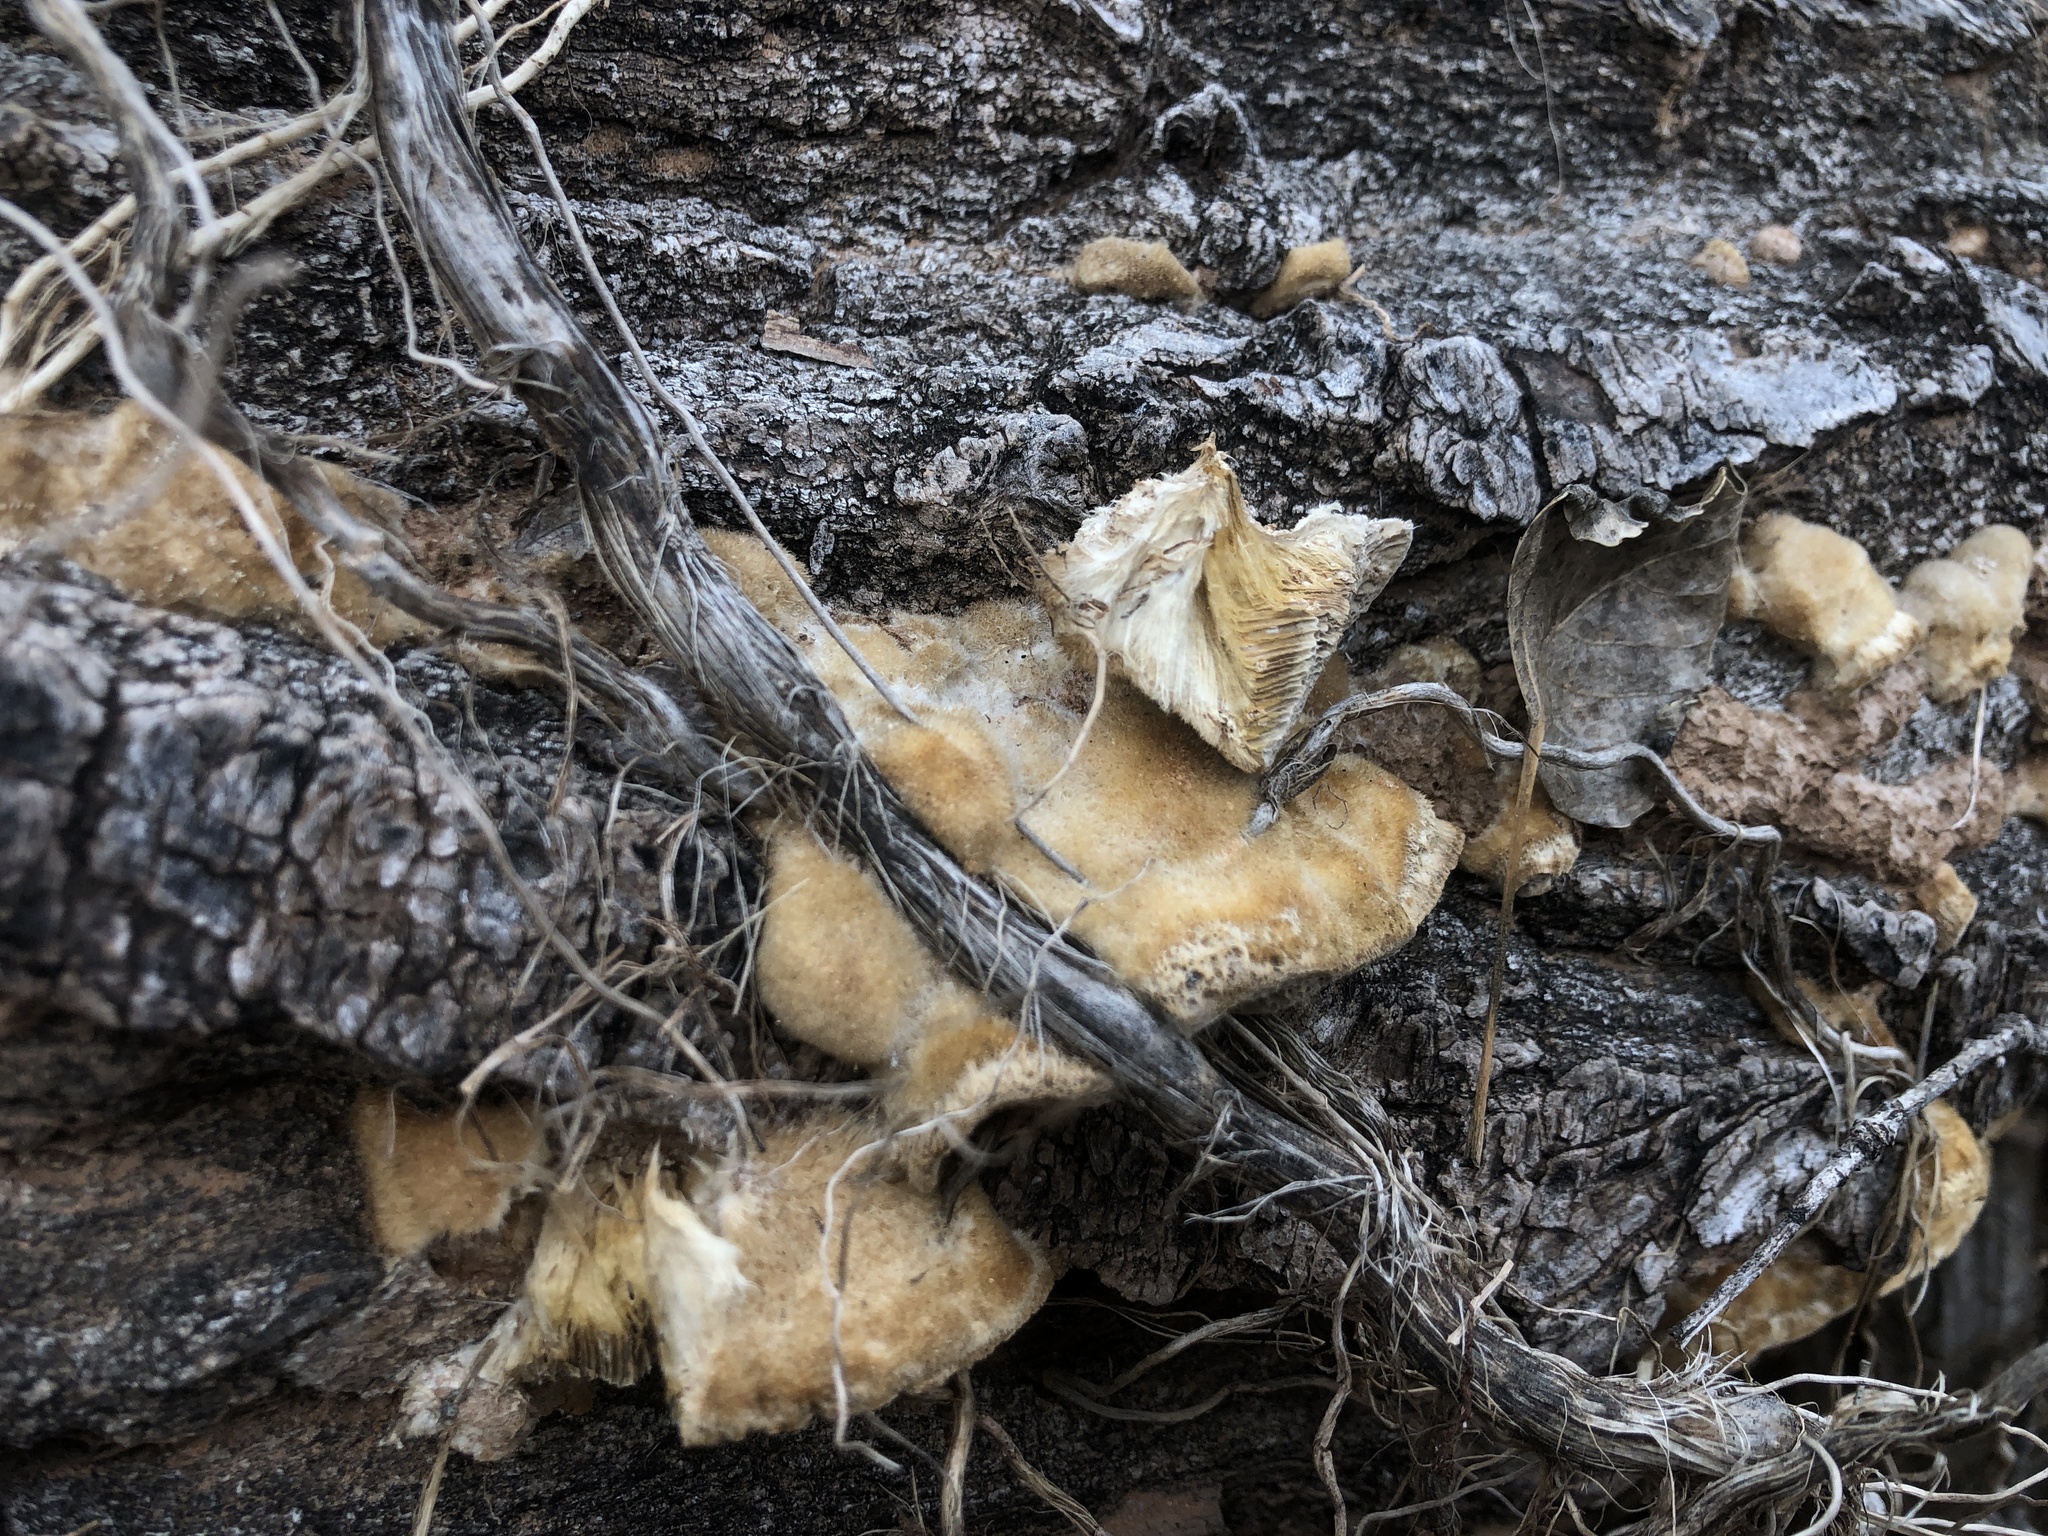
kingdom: Fungi
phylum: Basidiomycota
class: Agaricomycetes
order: Polyporales
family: Polyporaceae
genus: Coriolopsis
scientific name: Coriolopsis gallica
